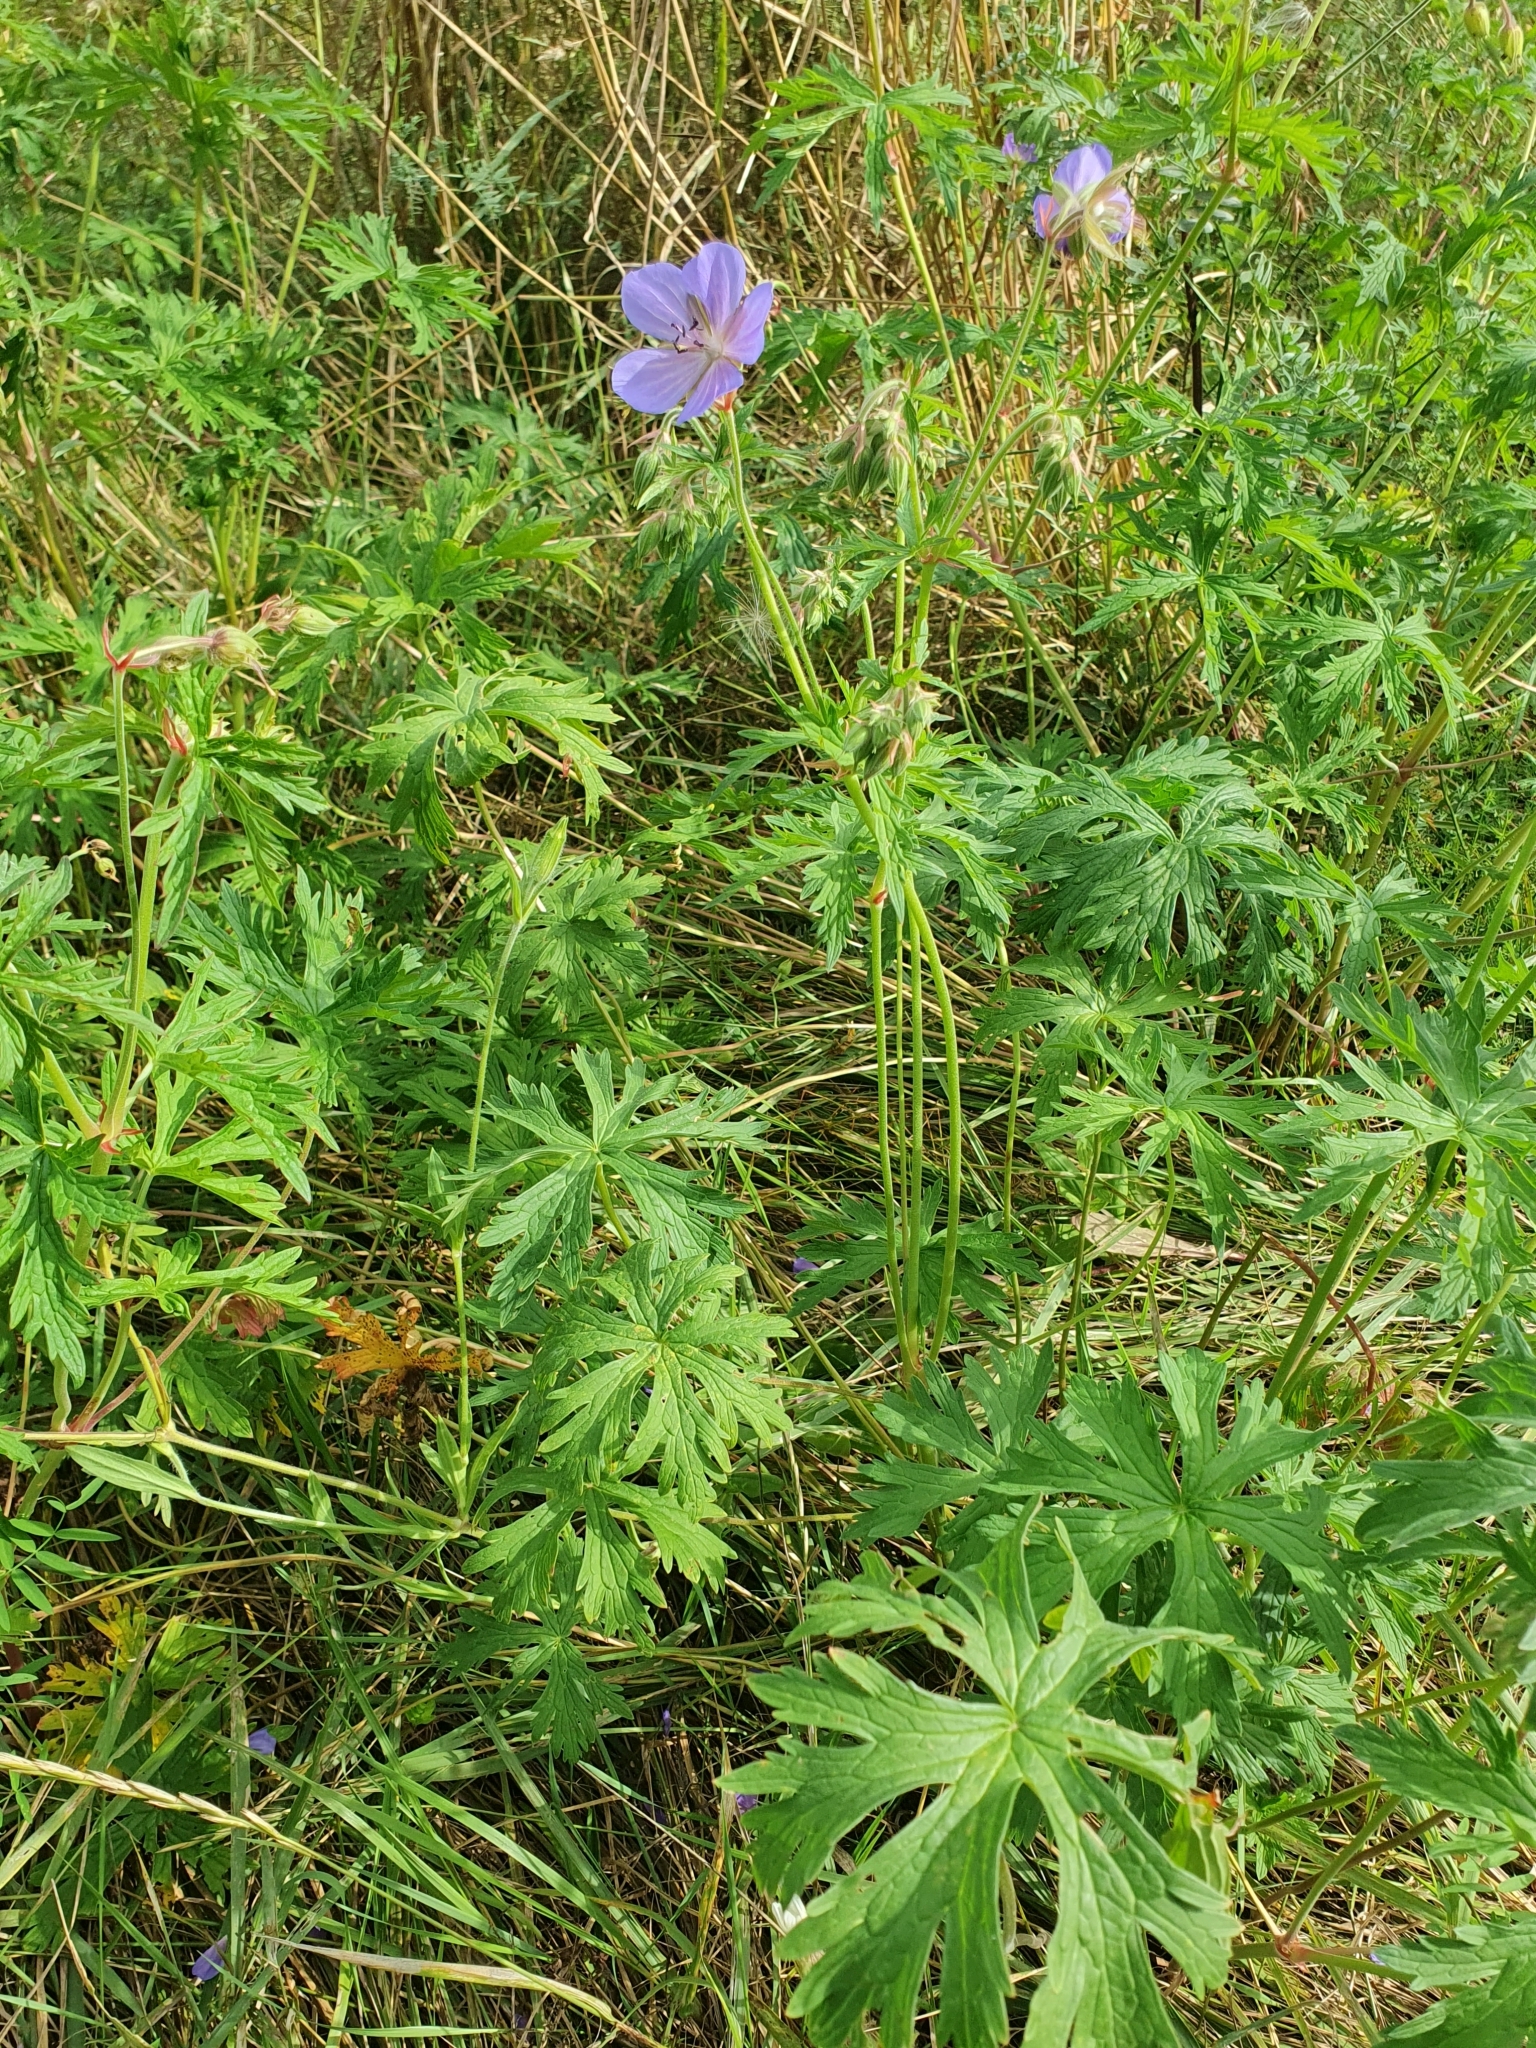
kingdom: Plantae
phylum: Tracheophyta
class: Magnoliopsida
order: Geraniales
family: Geraniaceae
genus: Geranium
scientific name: Geranium pratense
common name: Meadow crane's-bill
